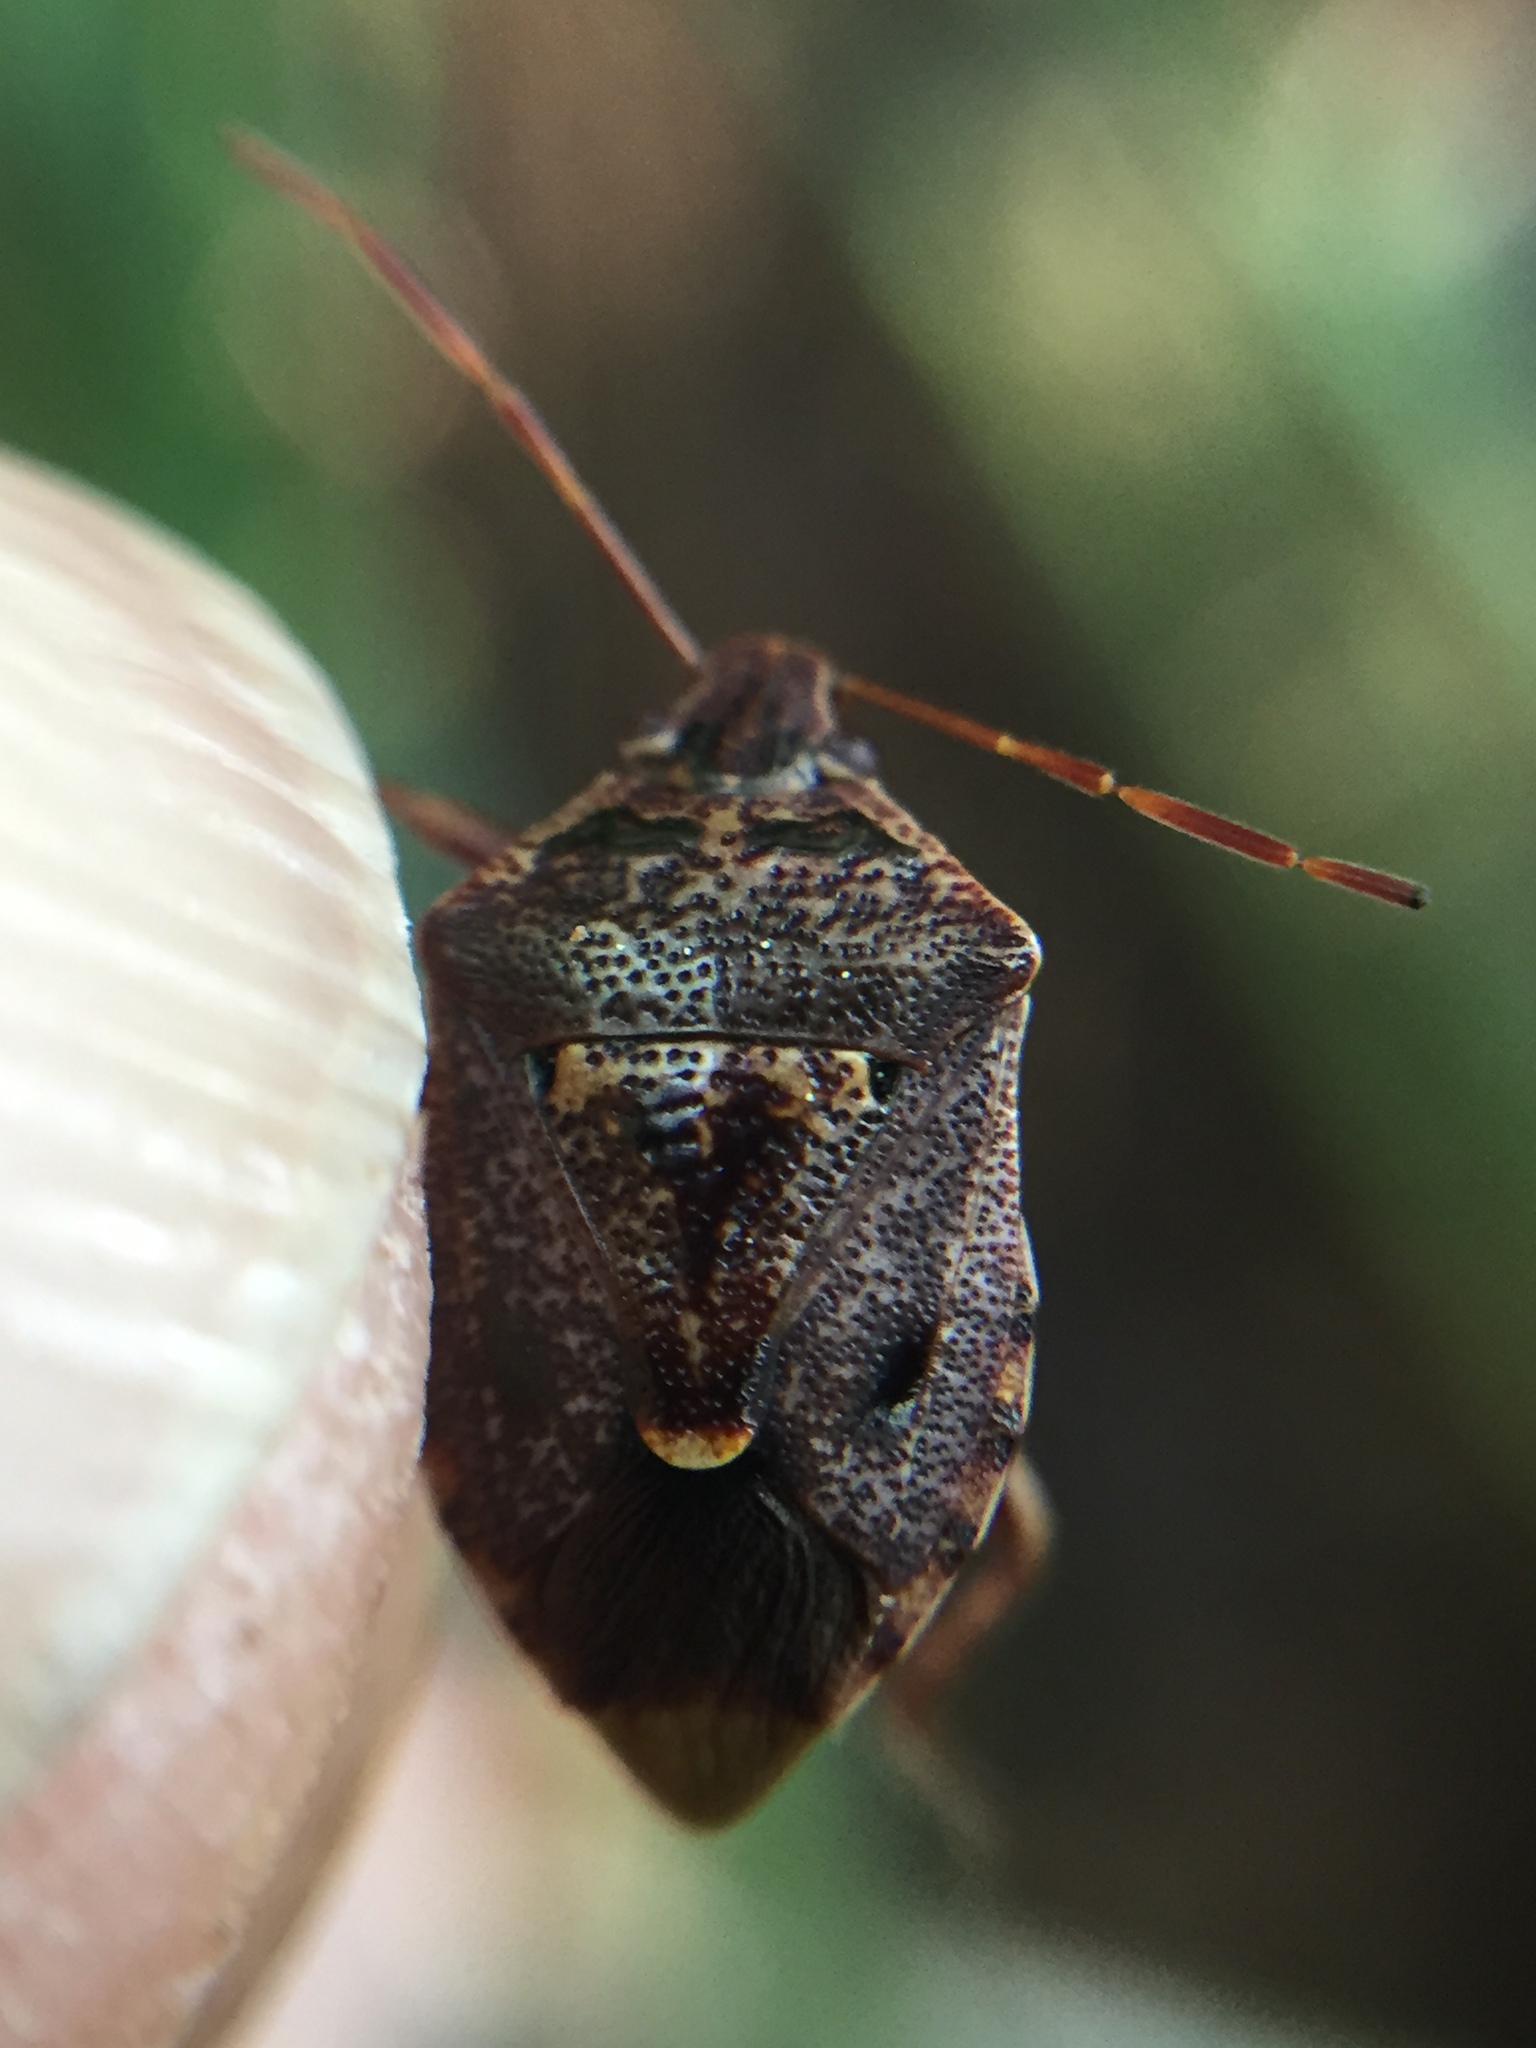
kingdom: Animalia
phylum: Arthropoda
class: Insecta
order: Hemiptera
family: Pentatomidae
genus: Cermatulus
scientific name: Cermatulus nasalis
